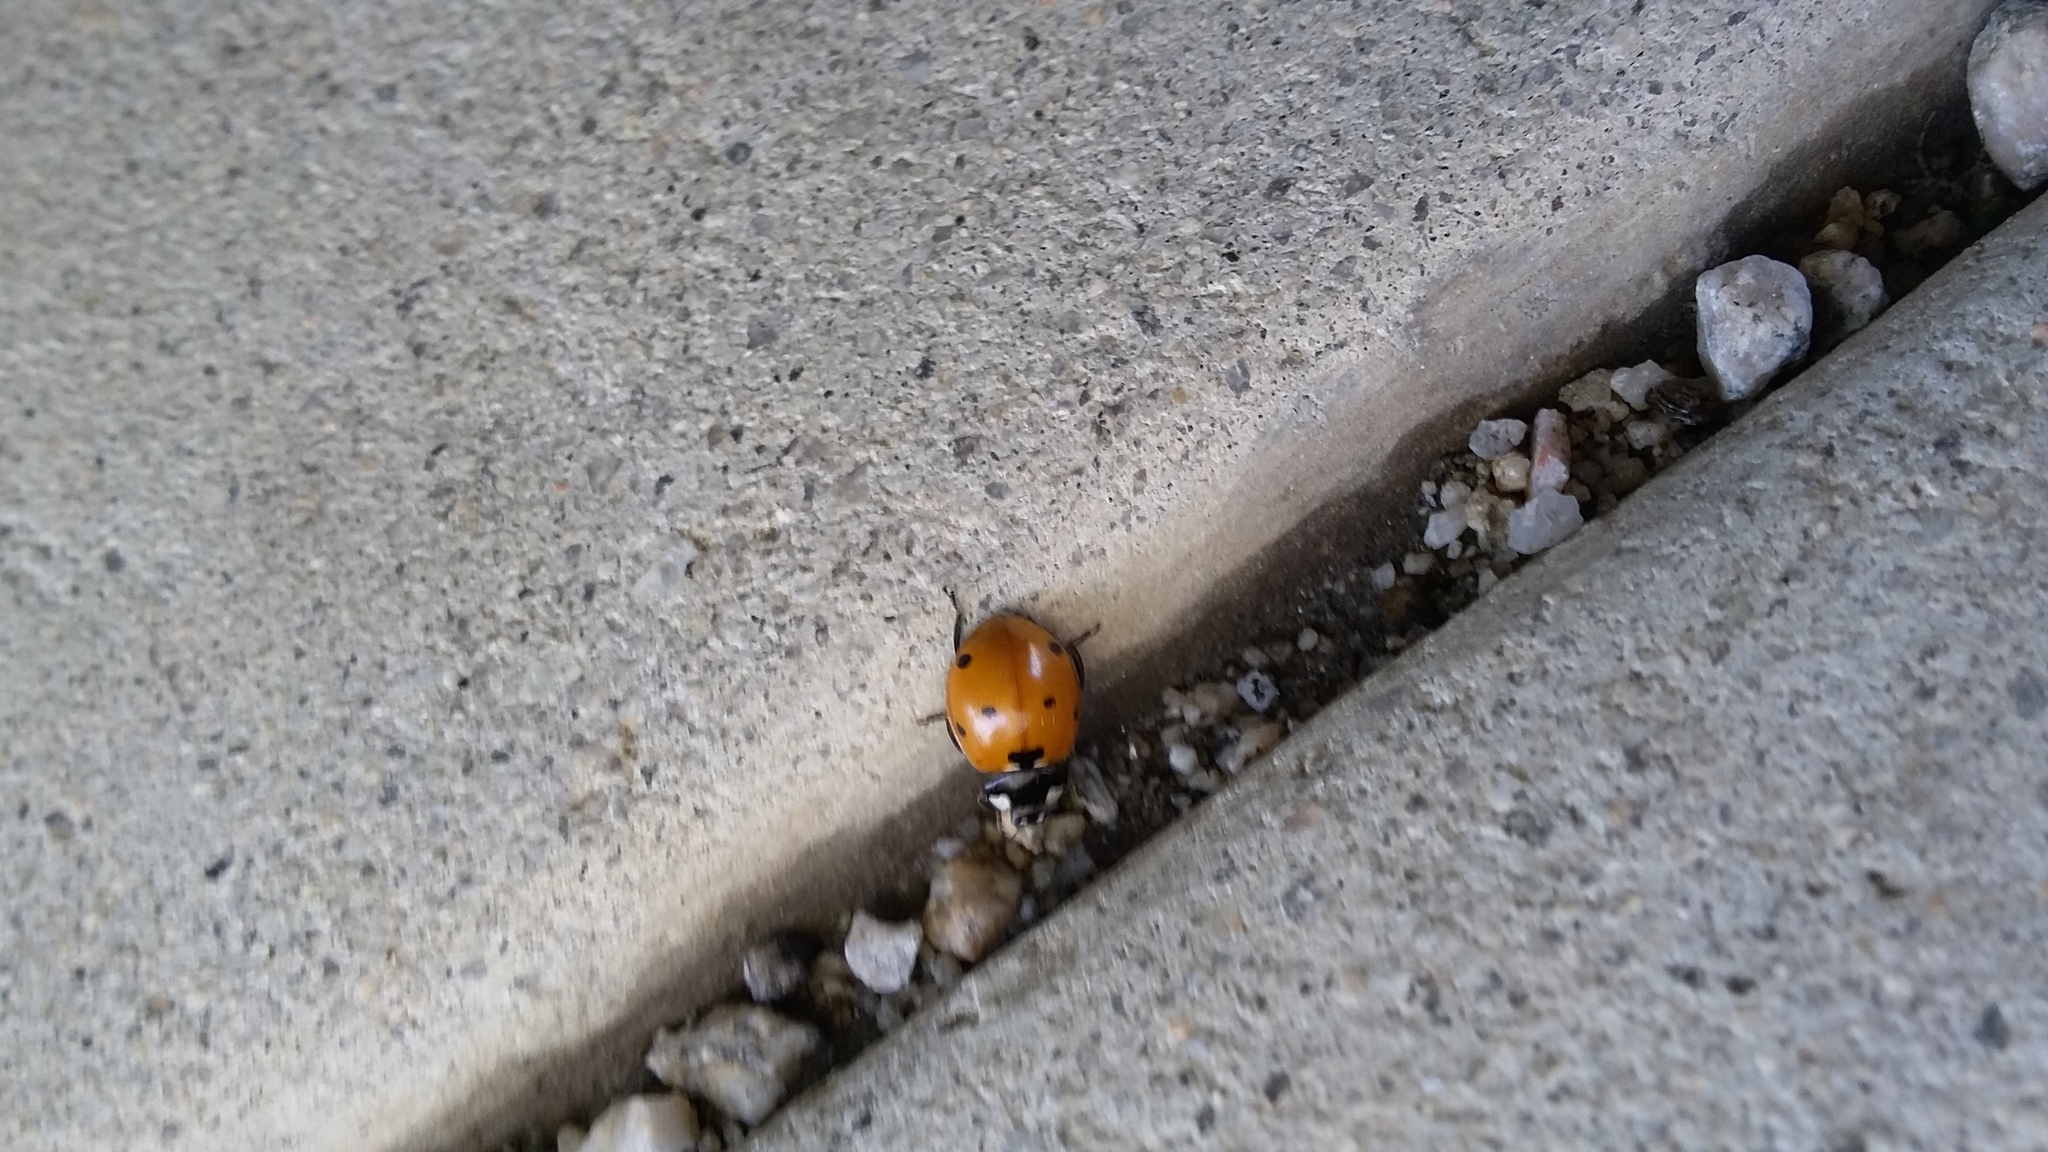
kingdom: Animalia
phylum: Arthropoda
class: Insecta
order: Coleoptera
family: Coccinellidae
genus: Coccinella
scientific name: Coccinella septempunctata
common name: Sevenspotted lady beetle
